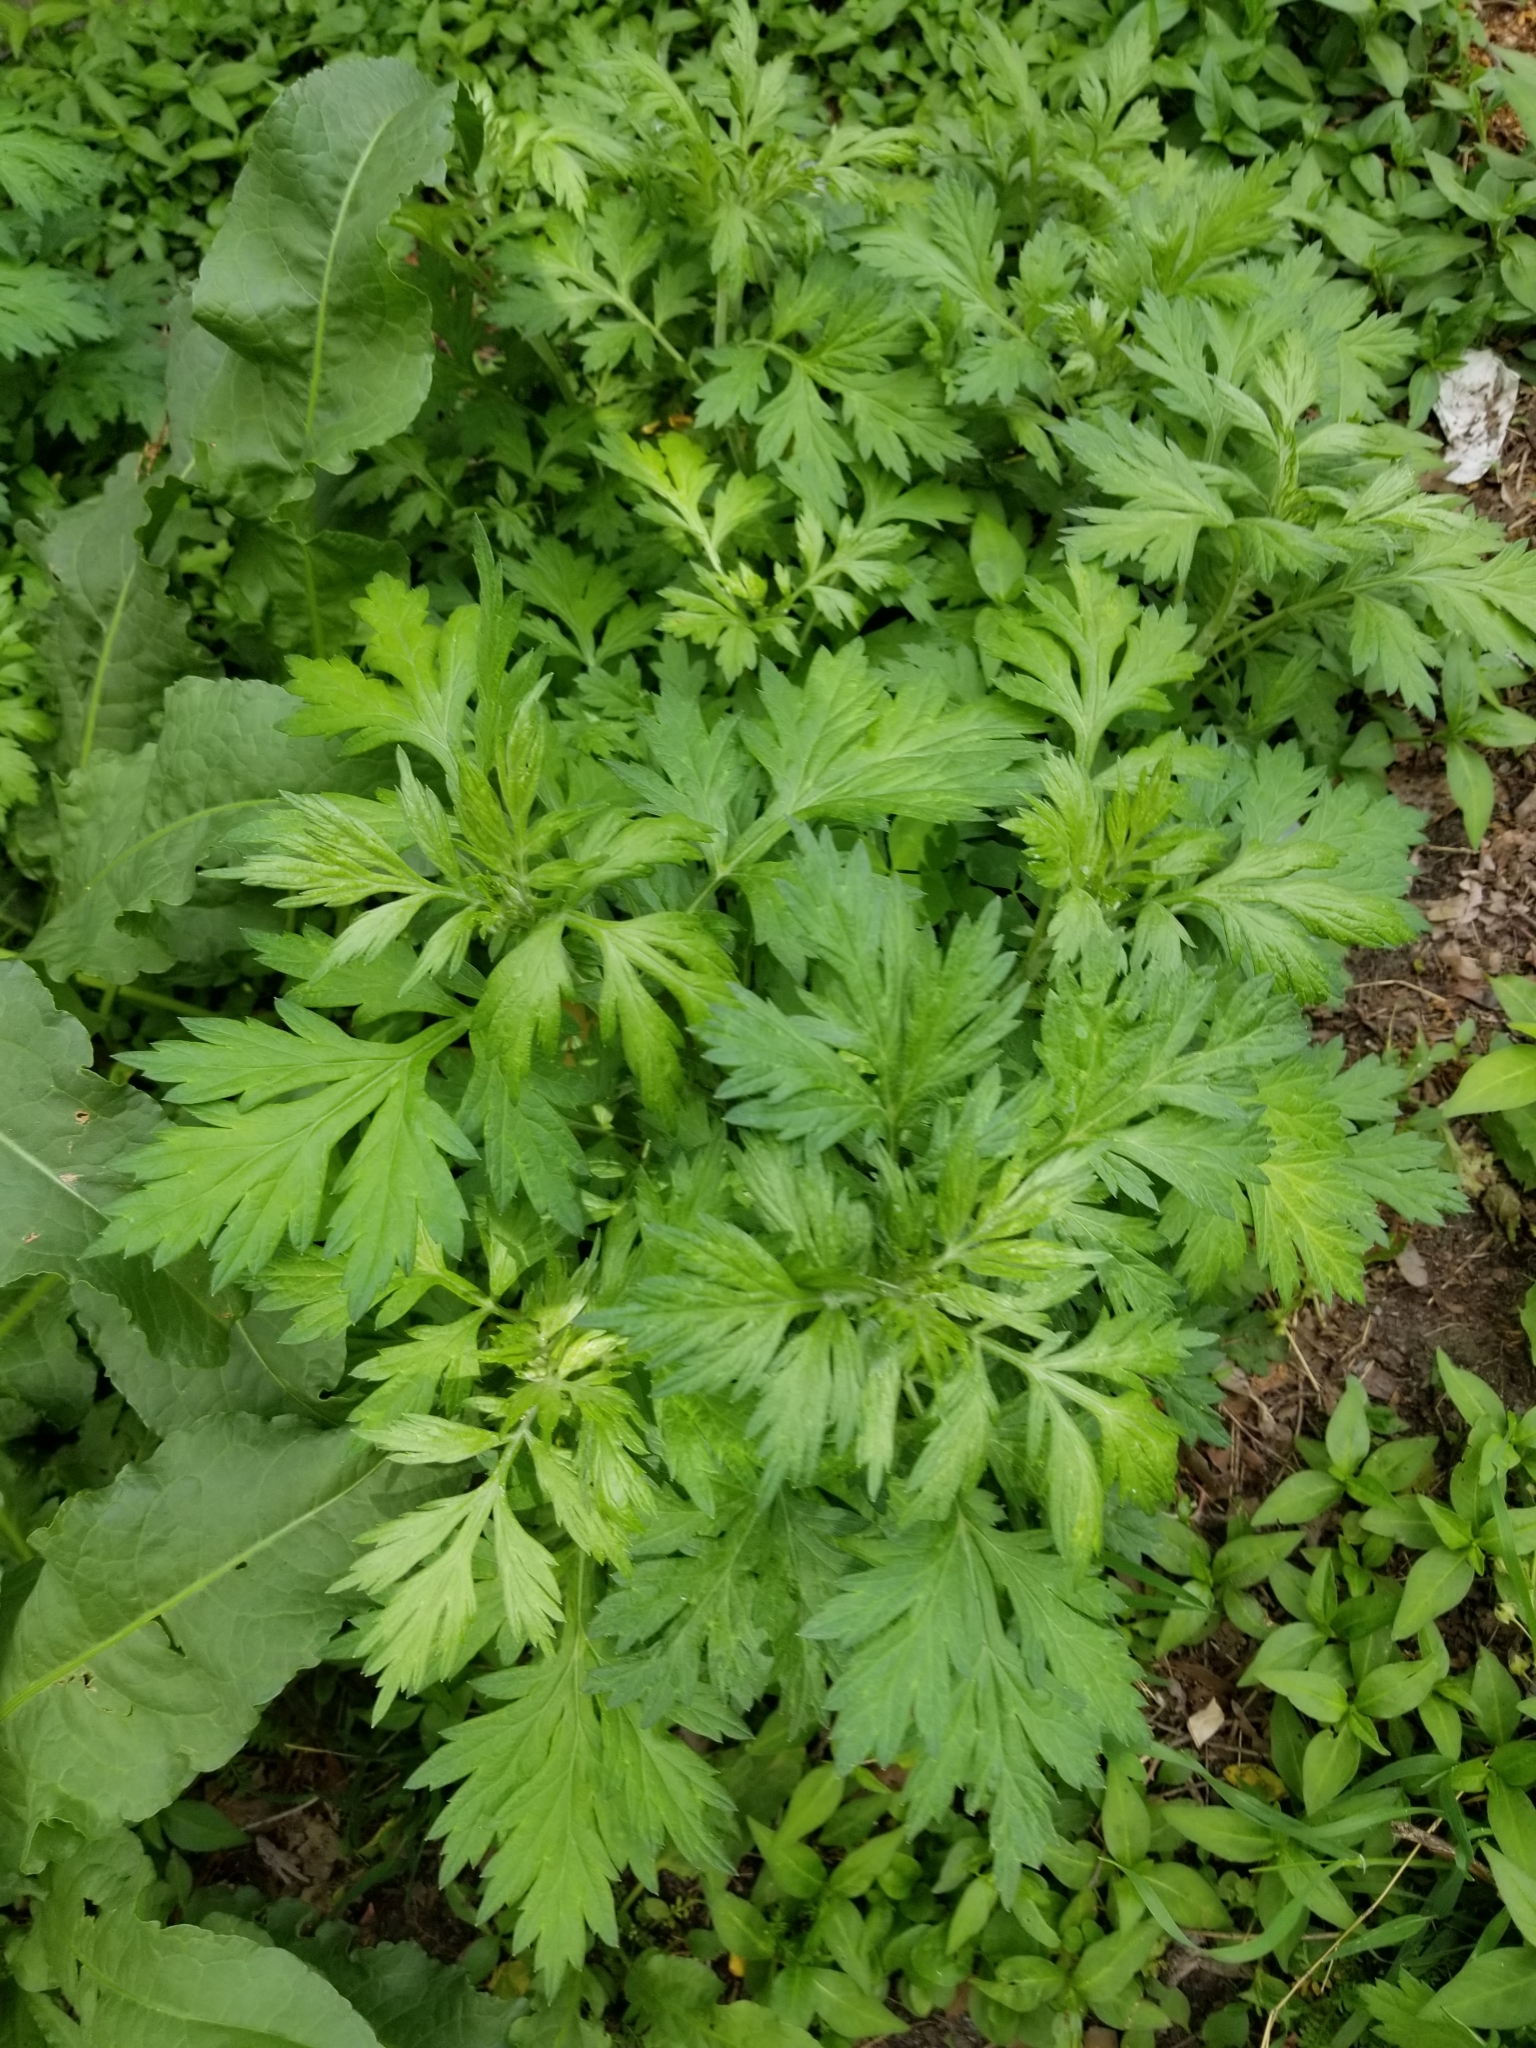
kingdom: Plantae
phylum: Tracheophyta
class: Magnoliopsida
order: Asterales
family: Asteraceae
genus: Artemisia
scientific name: Artemisia vulgaris
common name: Mugwort
